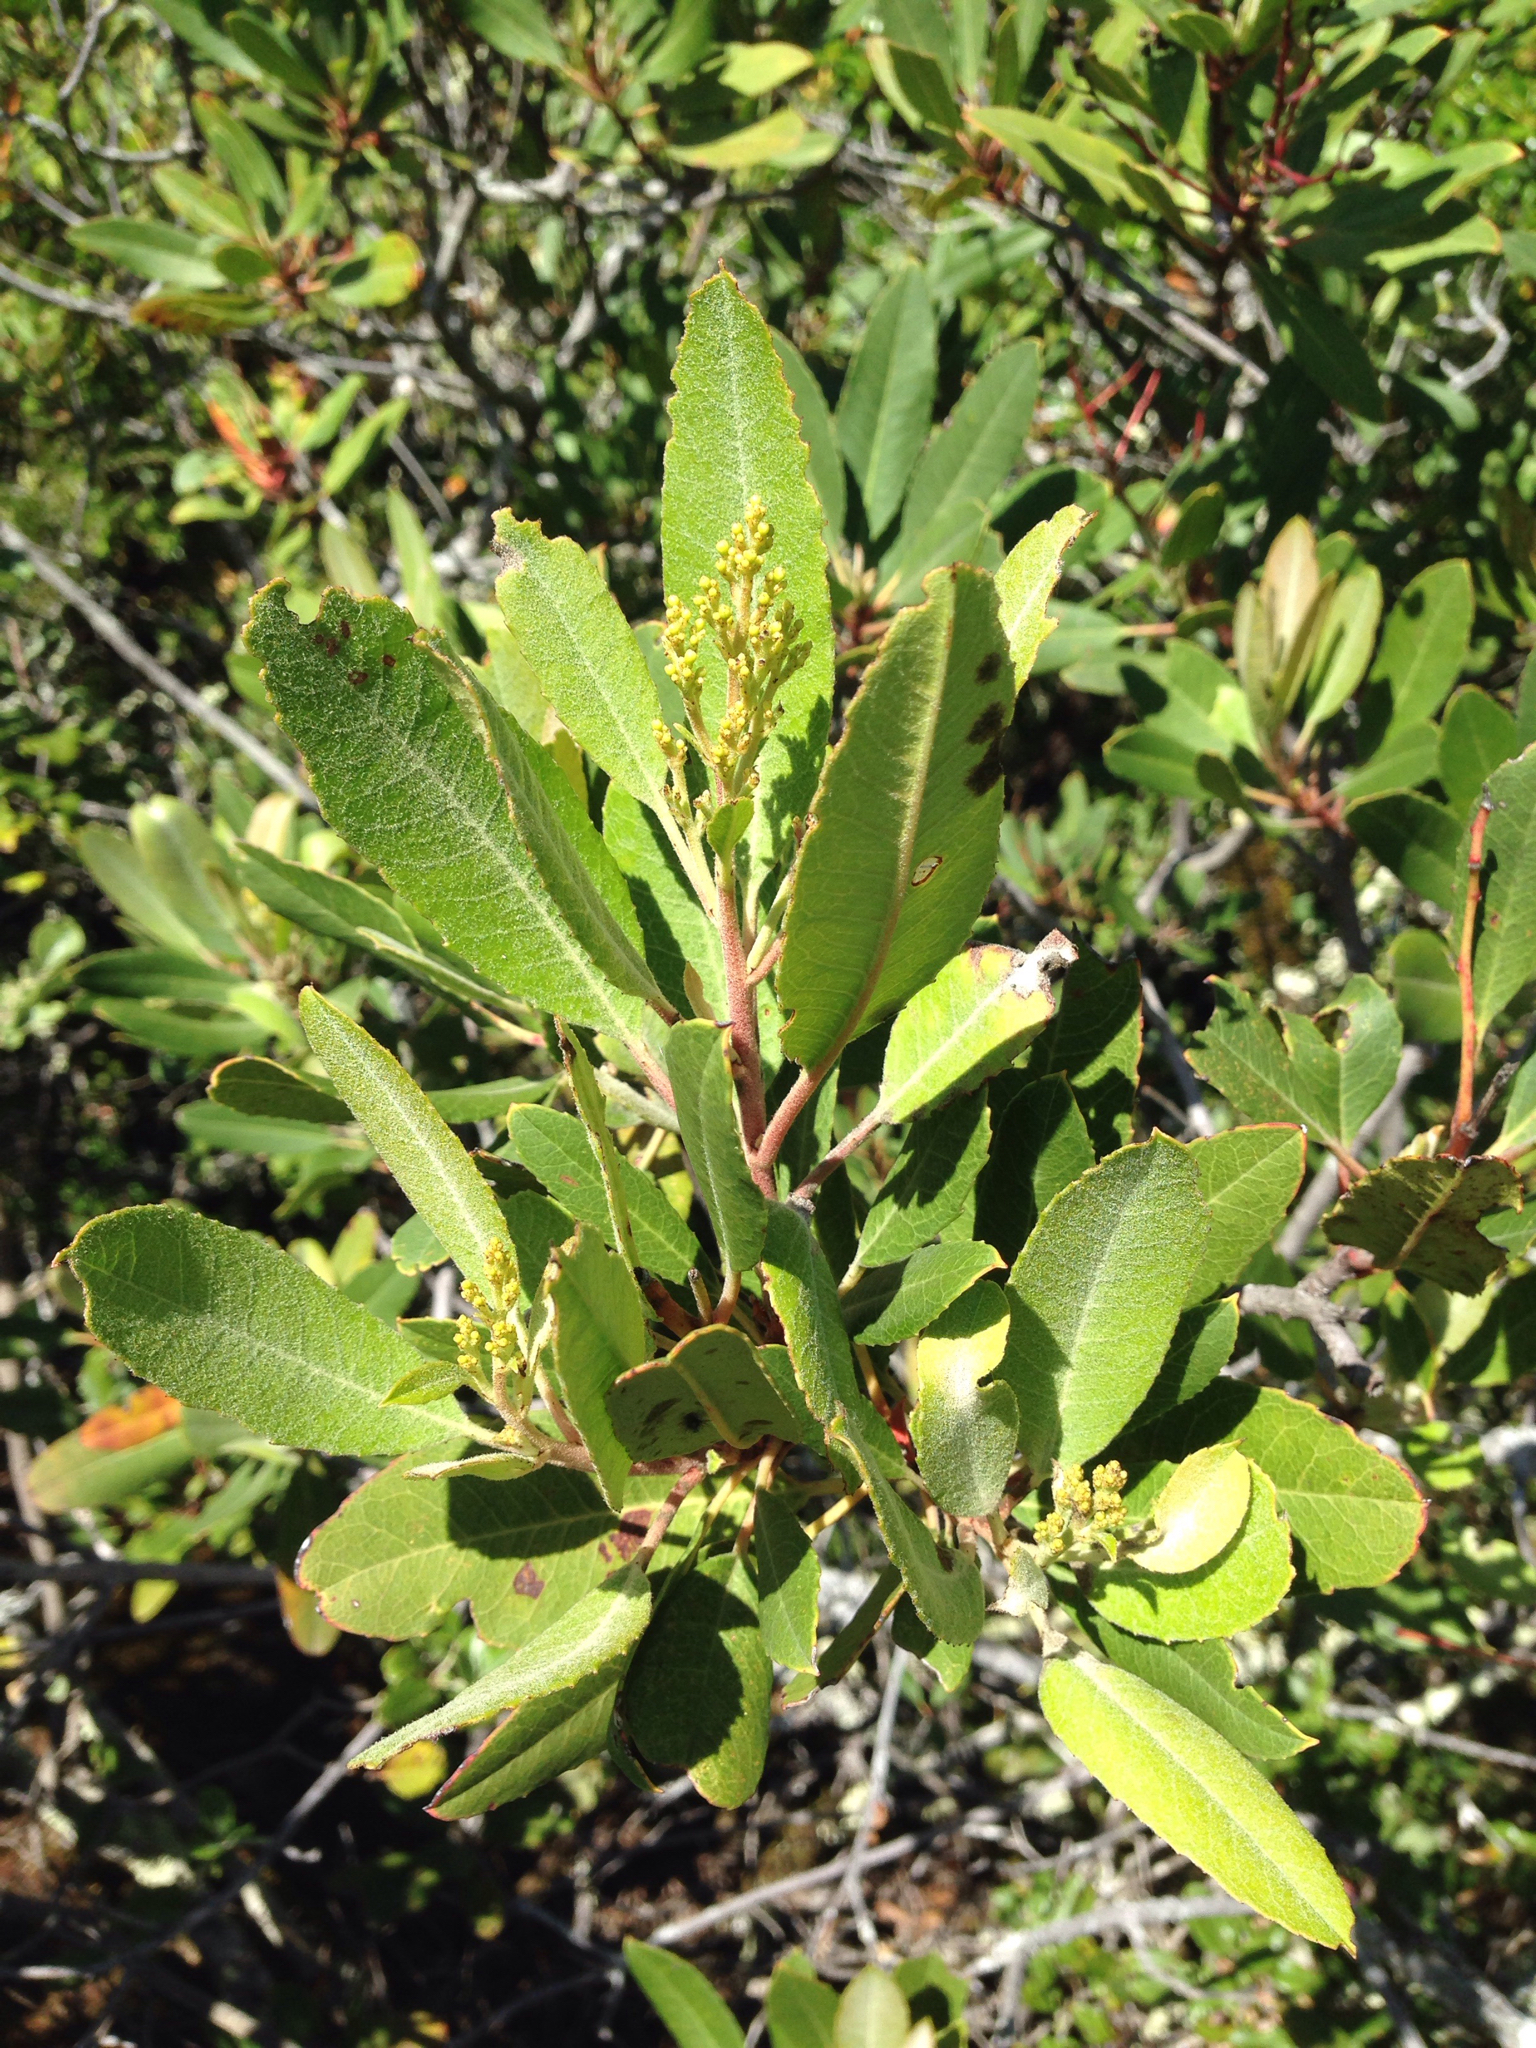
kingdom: Plantae
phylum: Tracheophyta
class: Magnoliopsida
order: Rosales
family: Rosaceae
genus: Heteromeles
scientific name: Heteromeles arbutifolia
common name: California-holly
